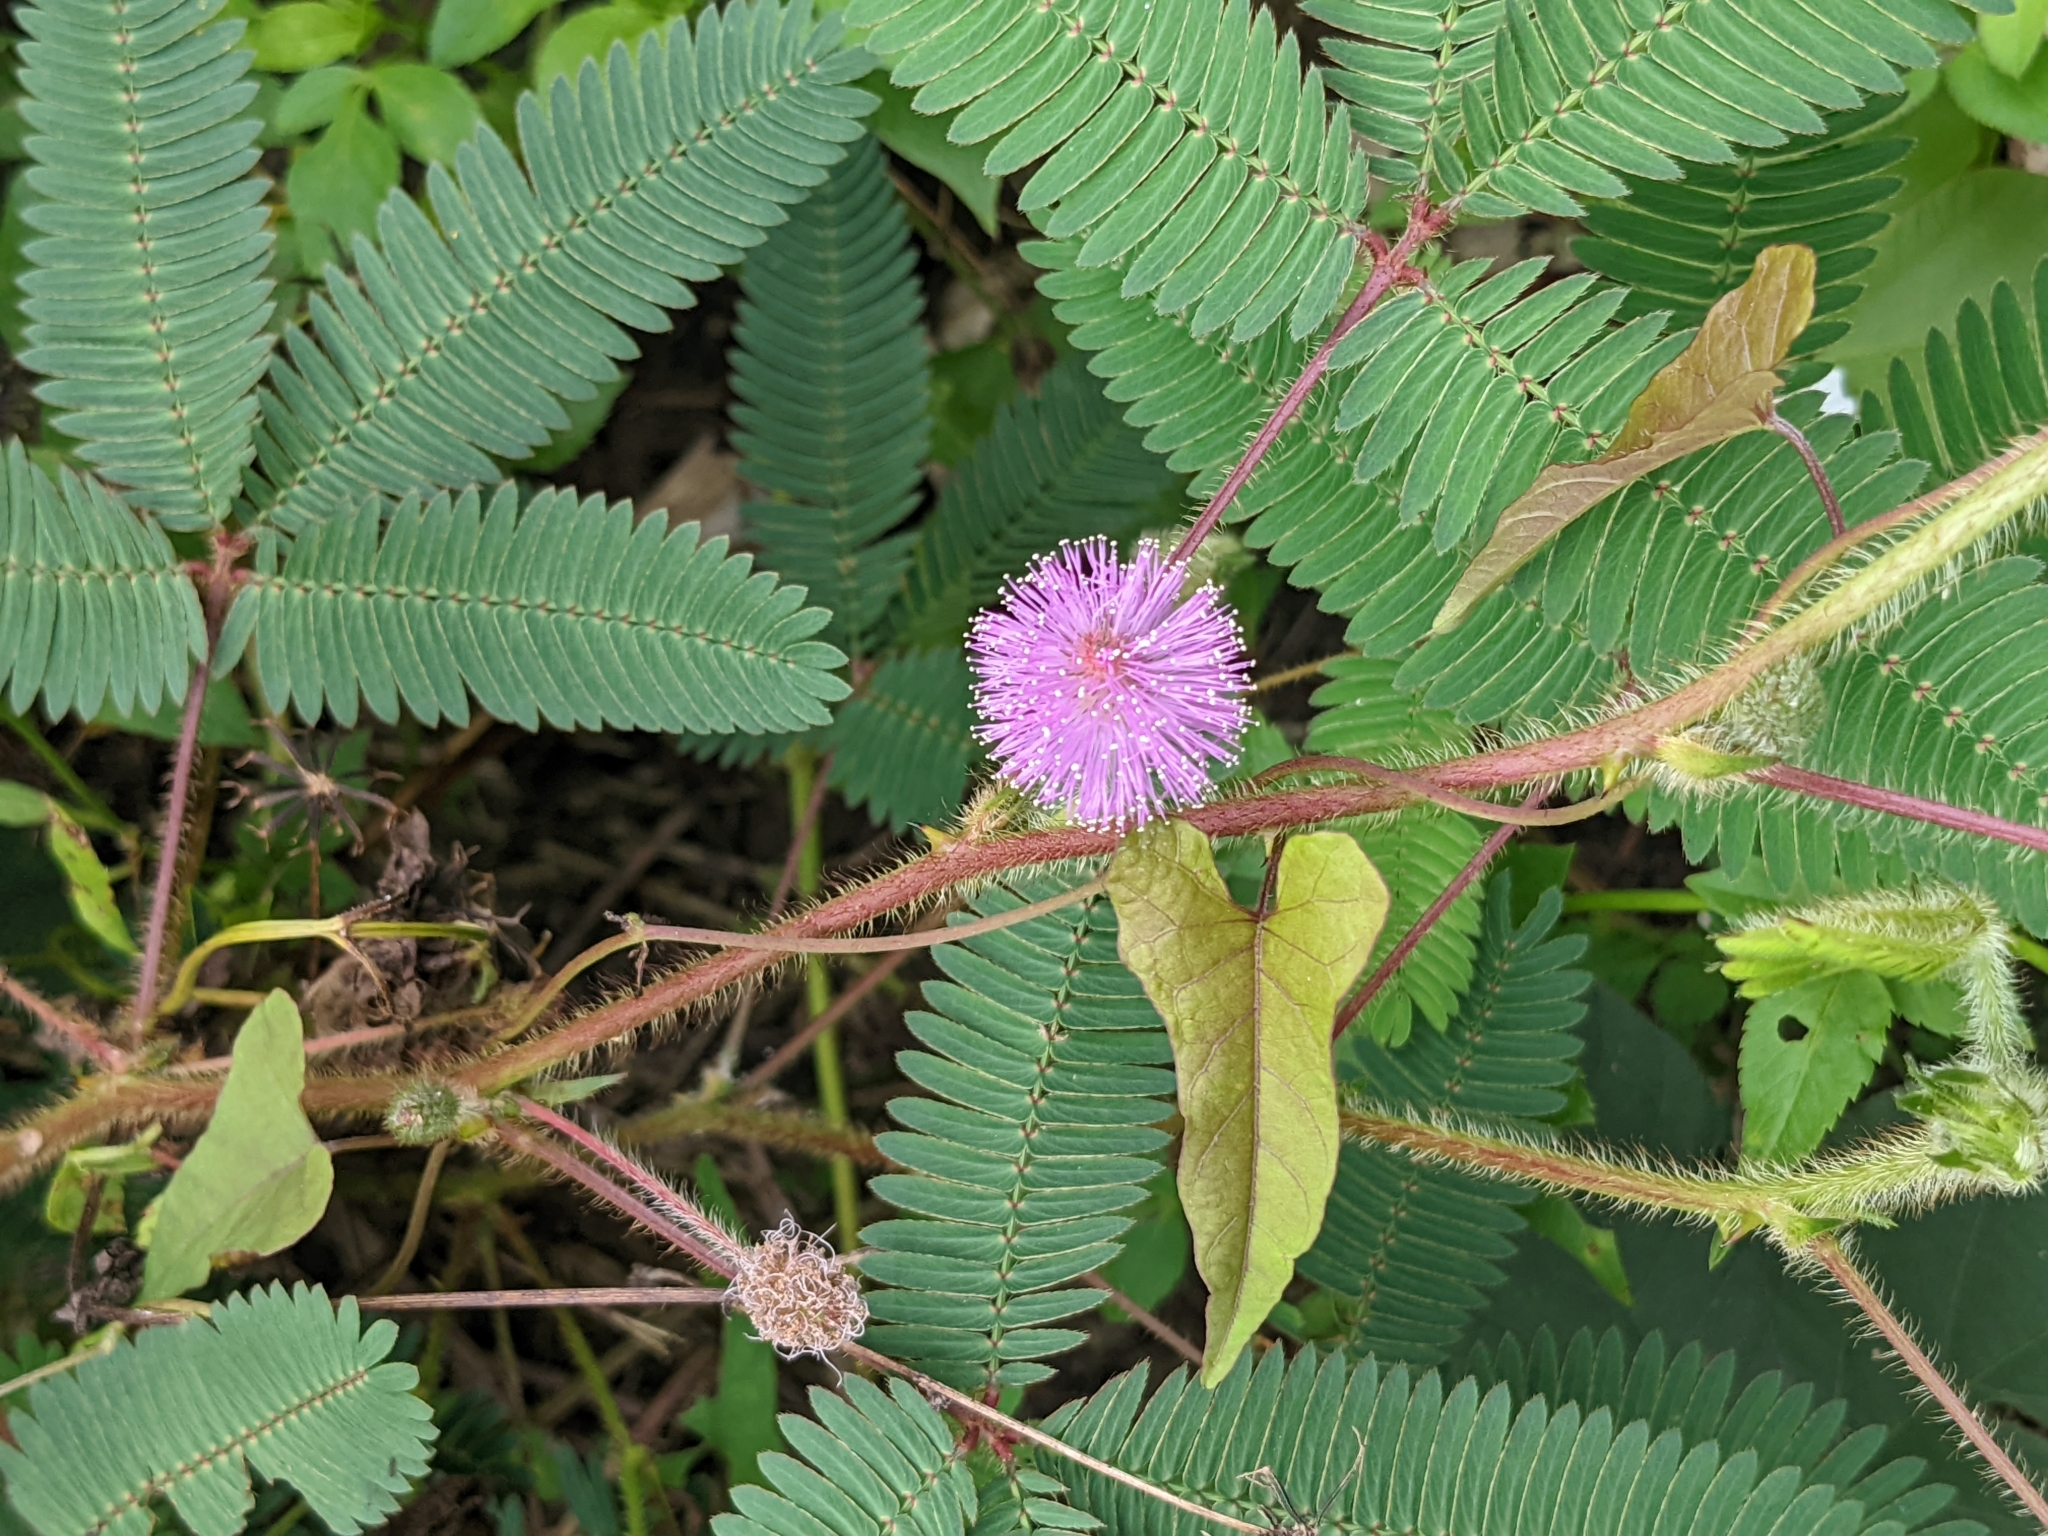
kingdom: Plantae
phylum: Tracheophyta
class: Magnoliopsida
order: Fabales
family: Fabaceae
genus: Mimosa
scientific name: Mimosa diplotricha
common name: Giant sensitive-plant
